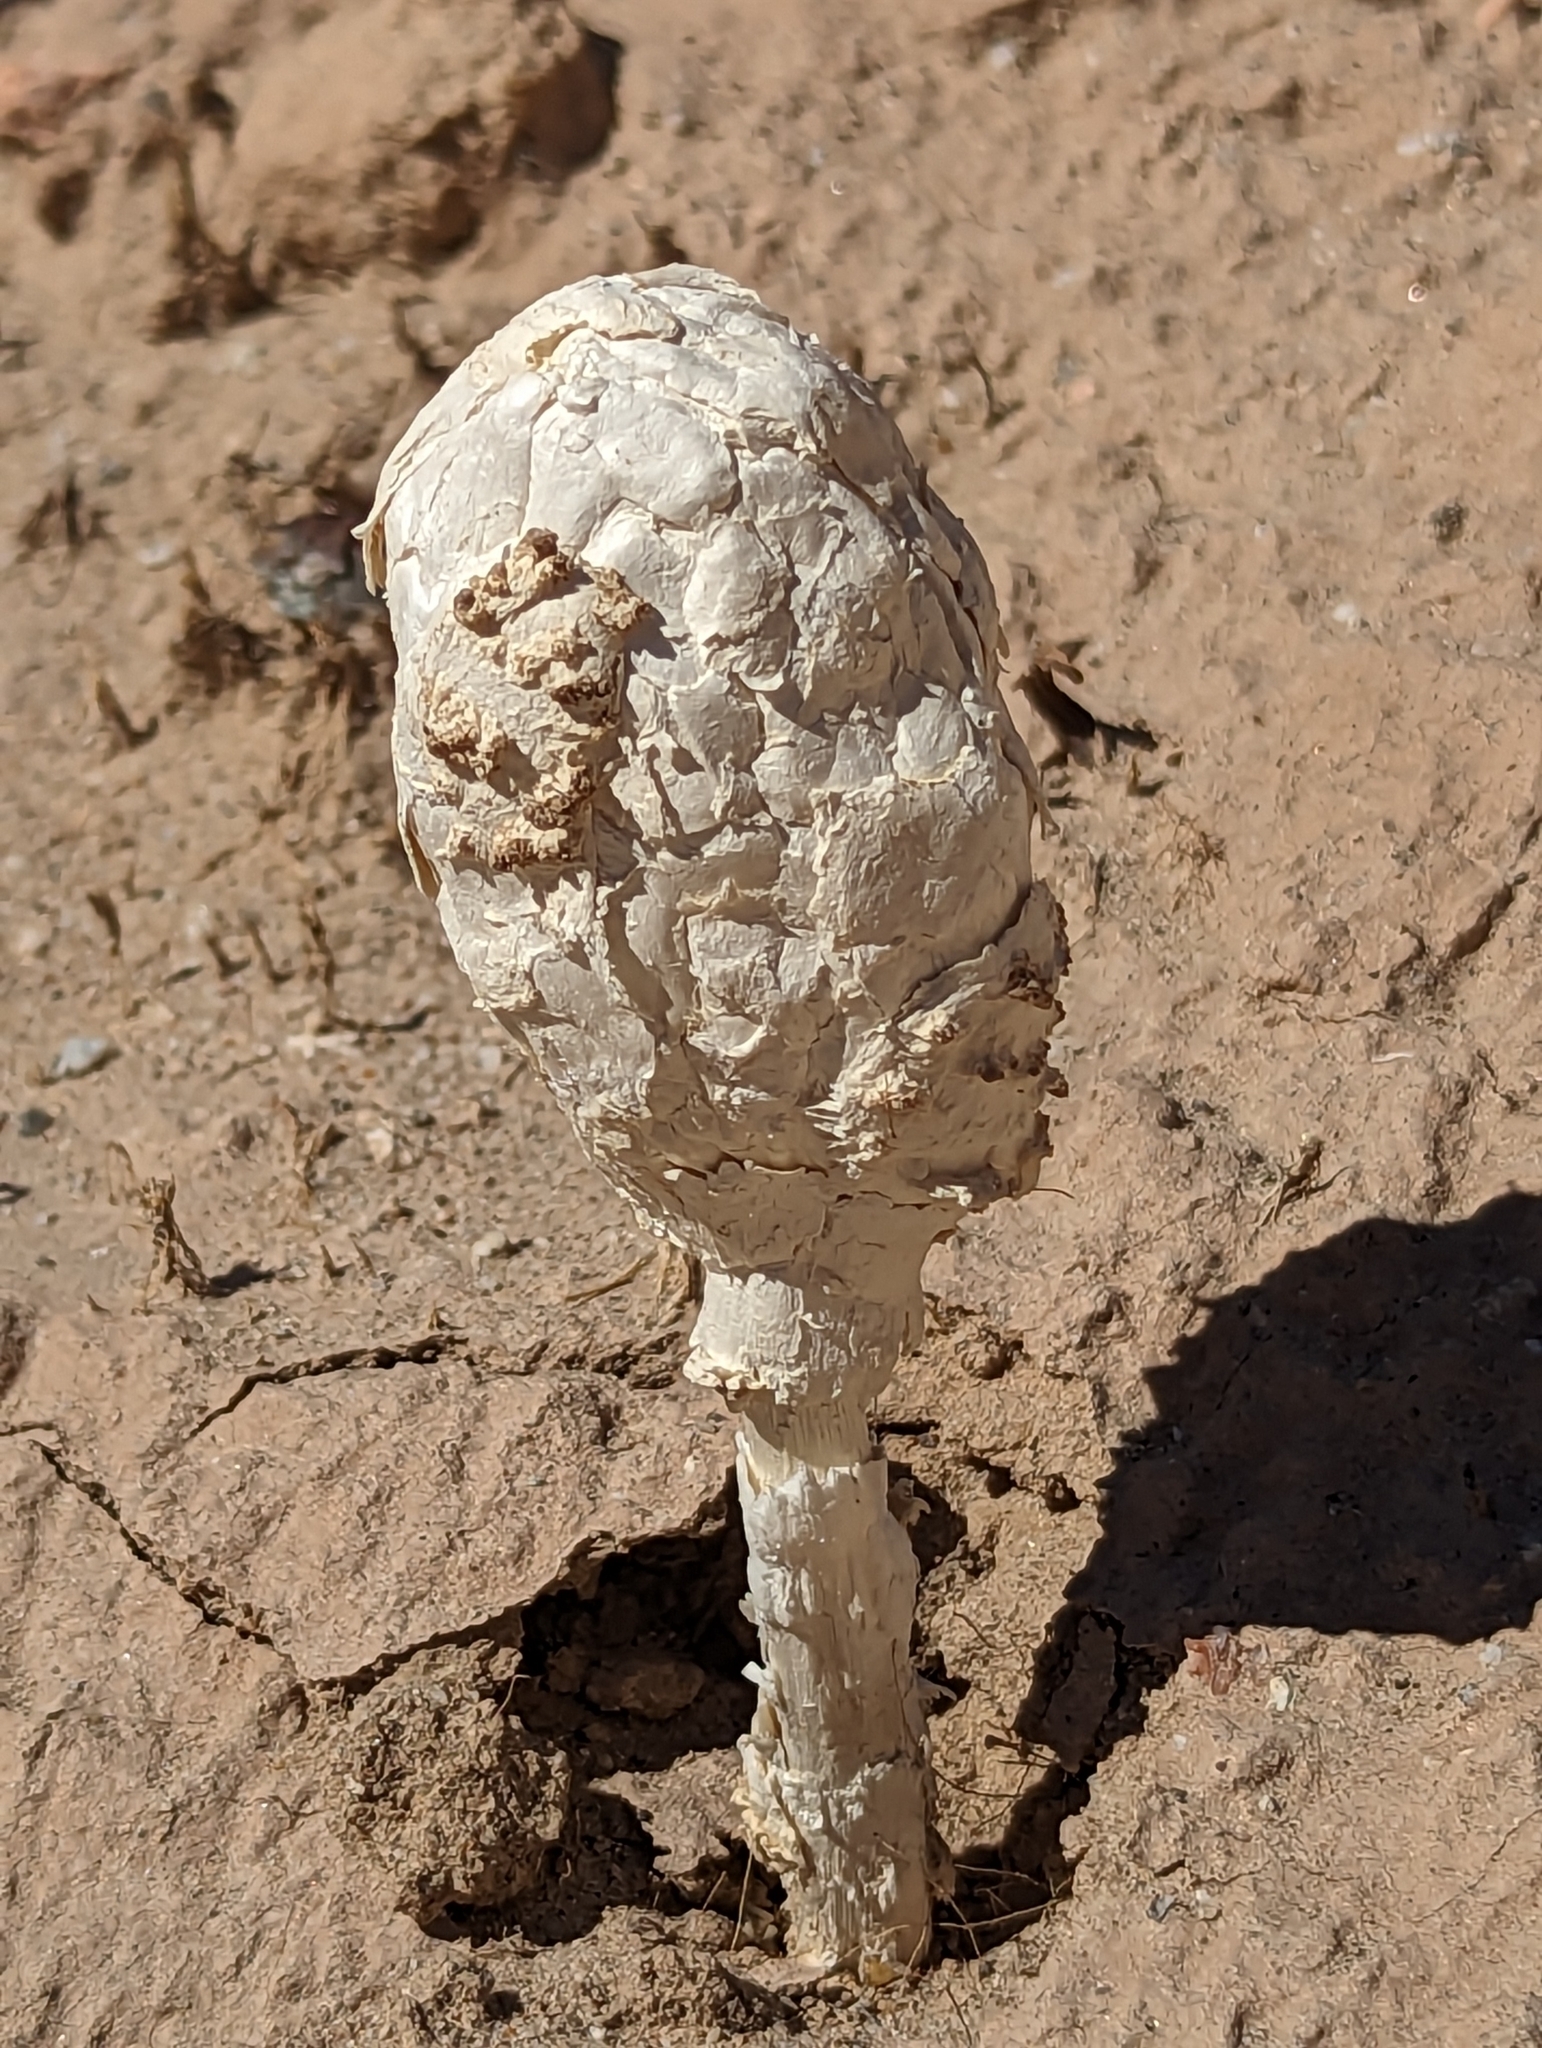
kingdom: Fungi
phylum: Basidiomycota
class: Agaricomycetes
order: Agaricales
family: Agaricaceae
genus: Podaxis
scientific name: Podaxis pistillaris
